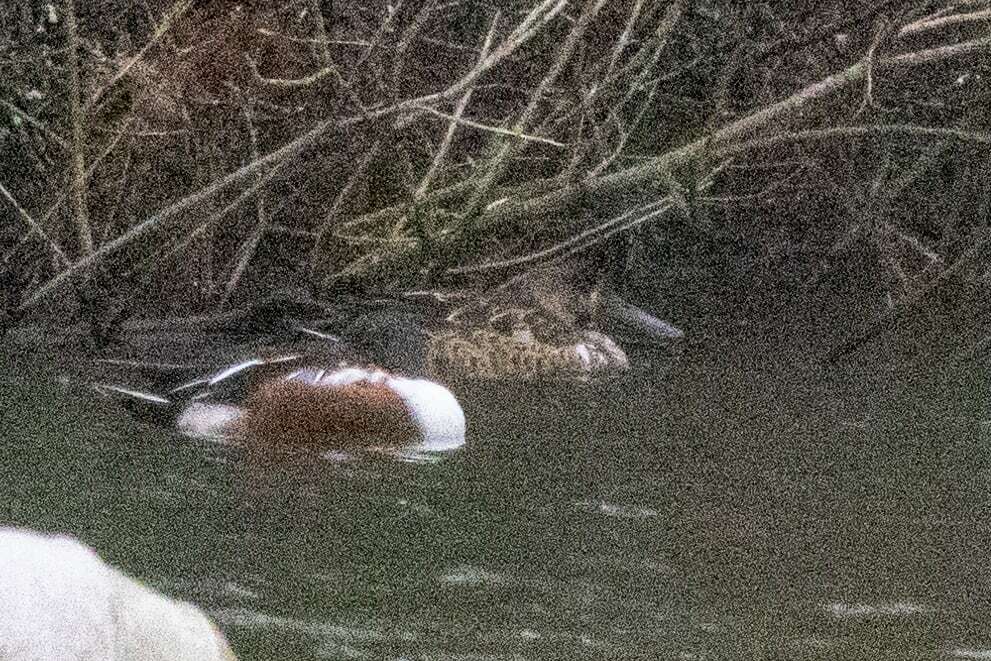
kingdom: Animalia
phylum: Chordata
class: Aves
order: Anseriformes
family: Anatidae
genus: Spatula
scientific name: Spatula clypeata
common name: Northern shoveler
